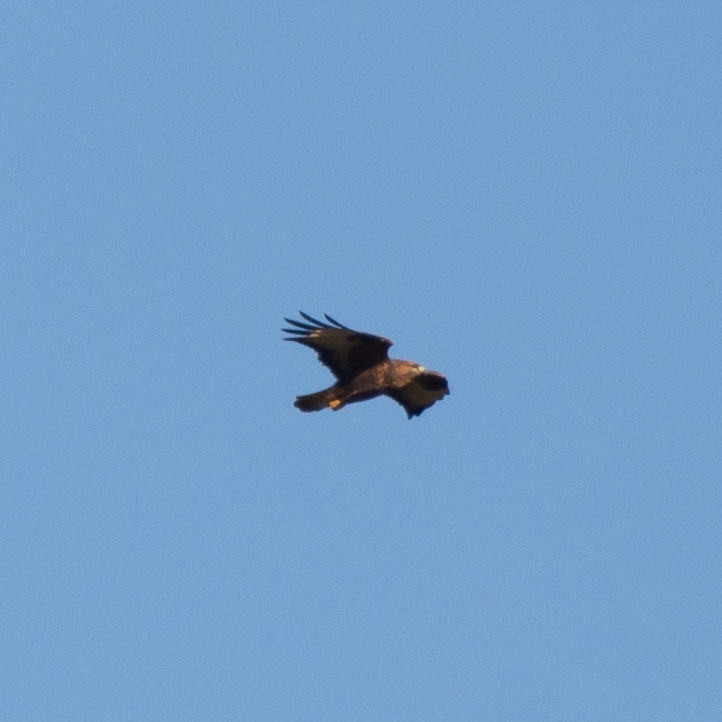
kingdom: Animalia
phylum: Chordata
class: Aves
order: Accipitriformes
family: Accipitridae
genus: Buteo
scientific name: Buteo buteo
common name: Common buzzard
